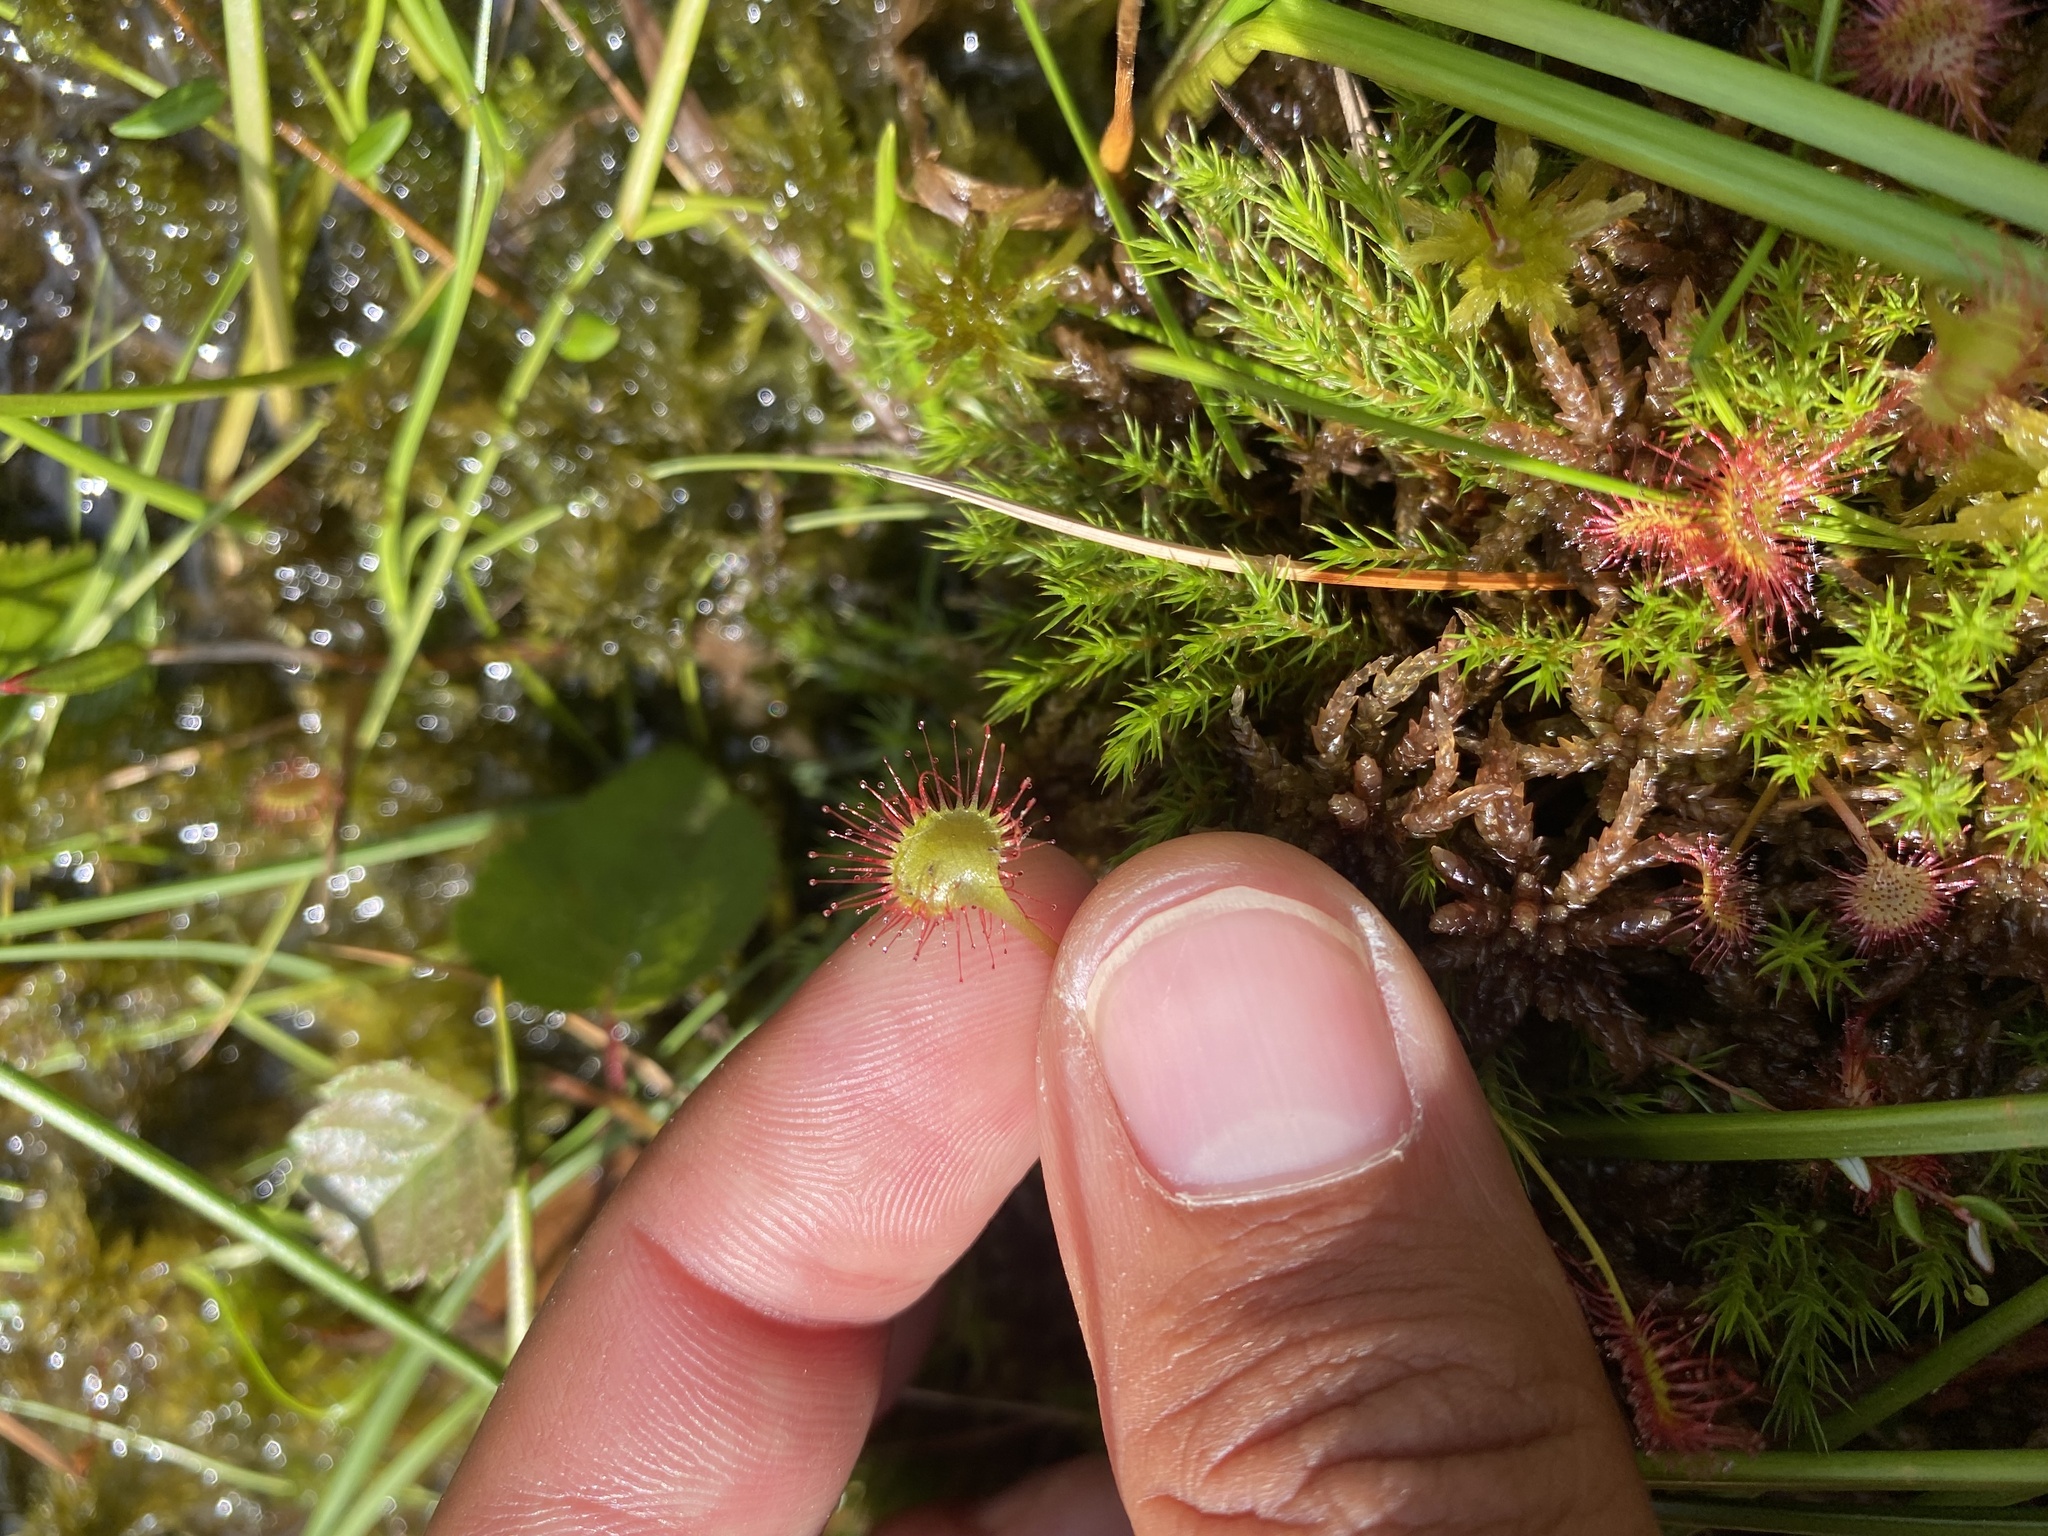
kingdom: Plantae
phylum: Tracheophyta
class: Magnoliopsida
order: Caryophyllales
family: Droseraceae
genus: Drosera
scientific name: Drosera rotundifolia
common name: Round-leaved sundew
